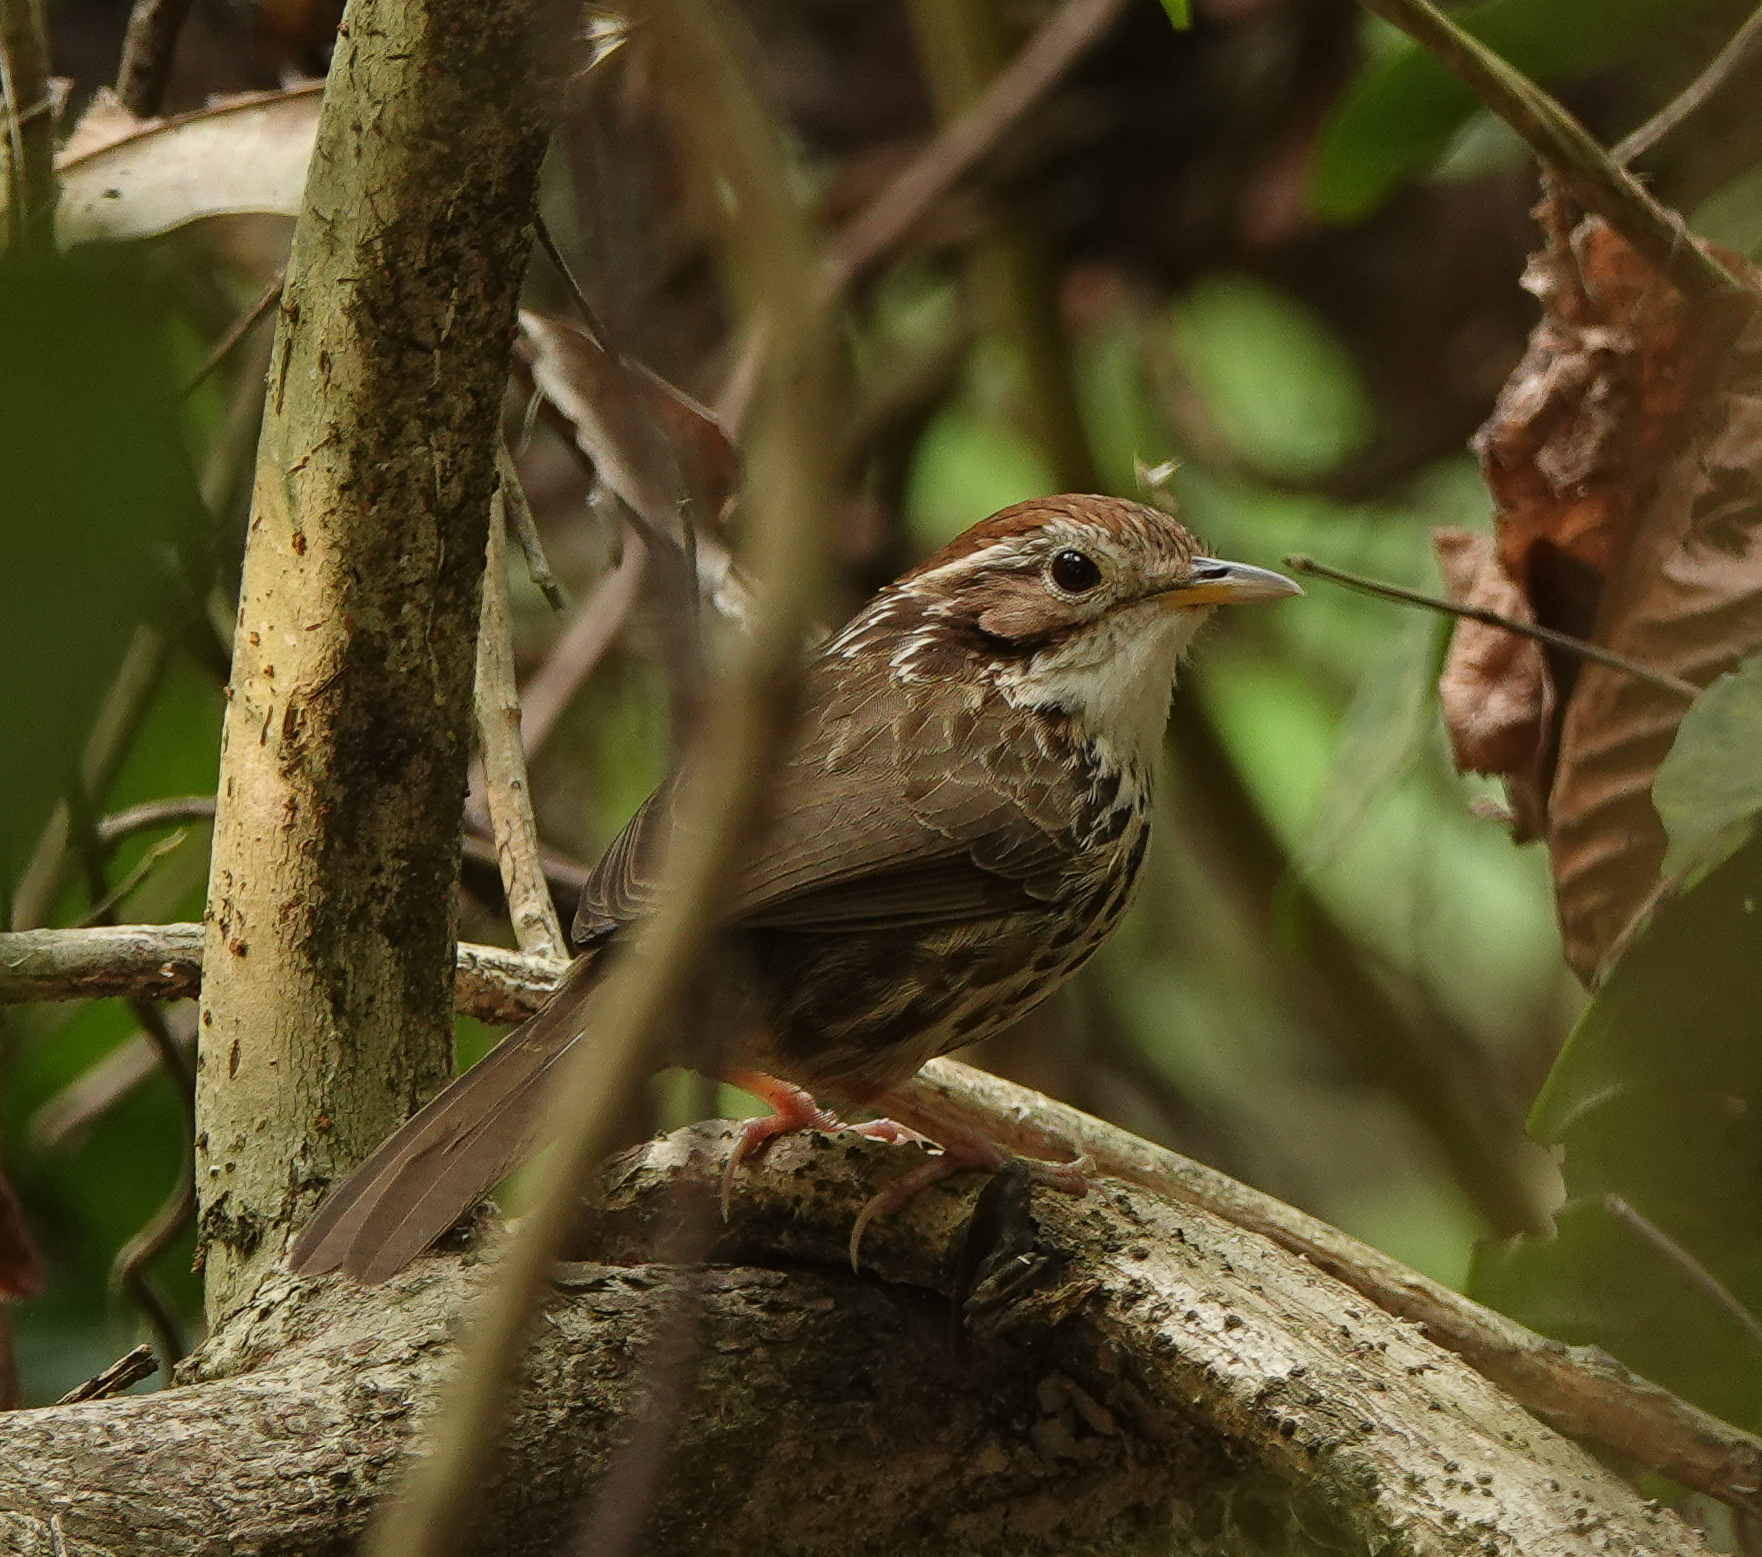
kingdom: Animalia
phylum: Chordata
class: Aves
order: Passeriformes
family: Pellorneidae
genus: Pellorneum
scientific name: Pellorneum ruficeps
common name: Puff-throated babbler
